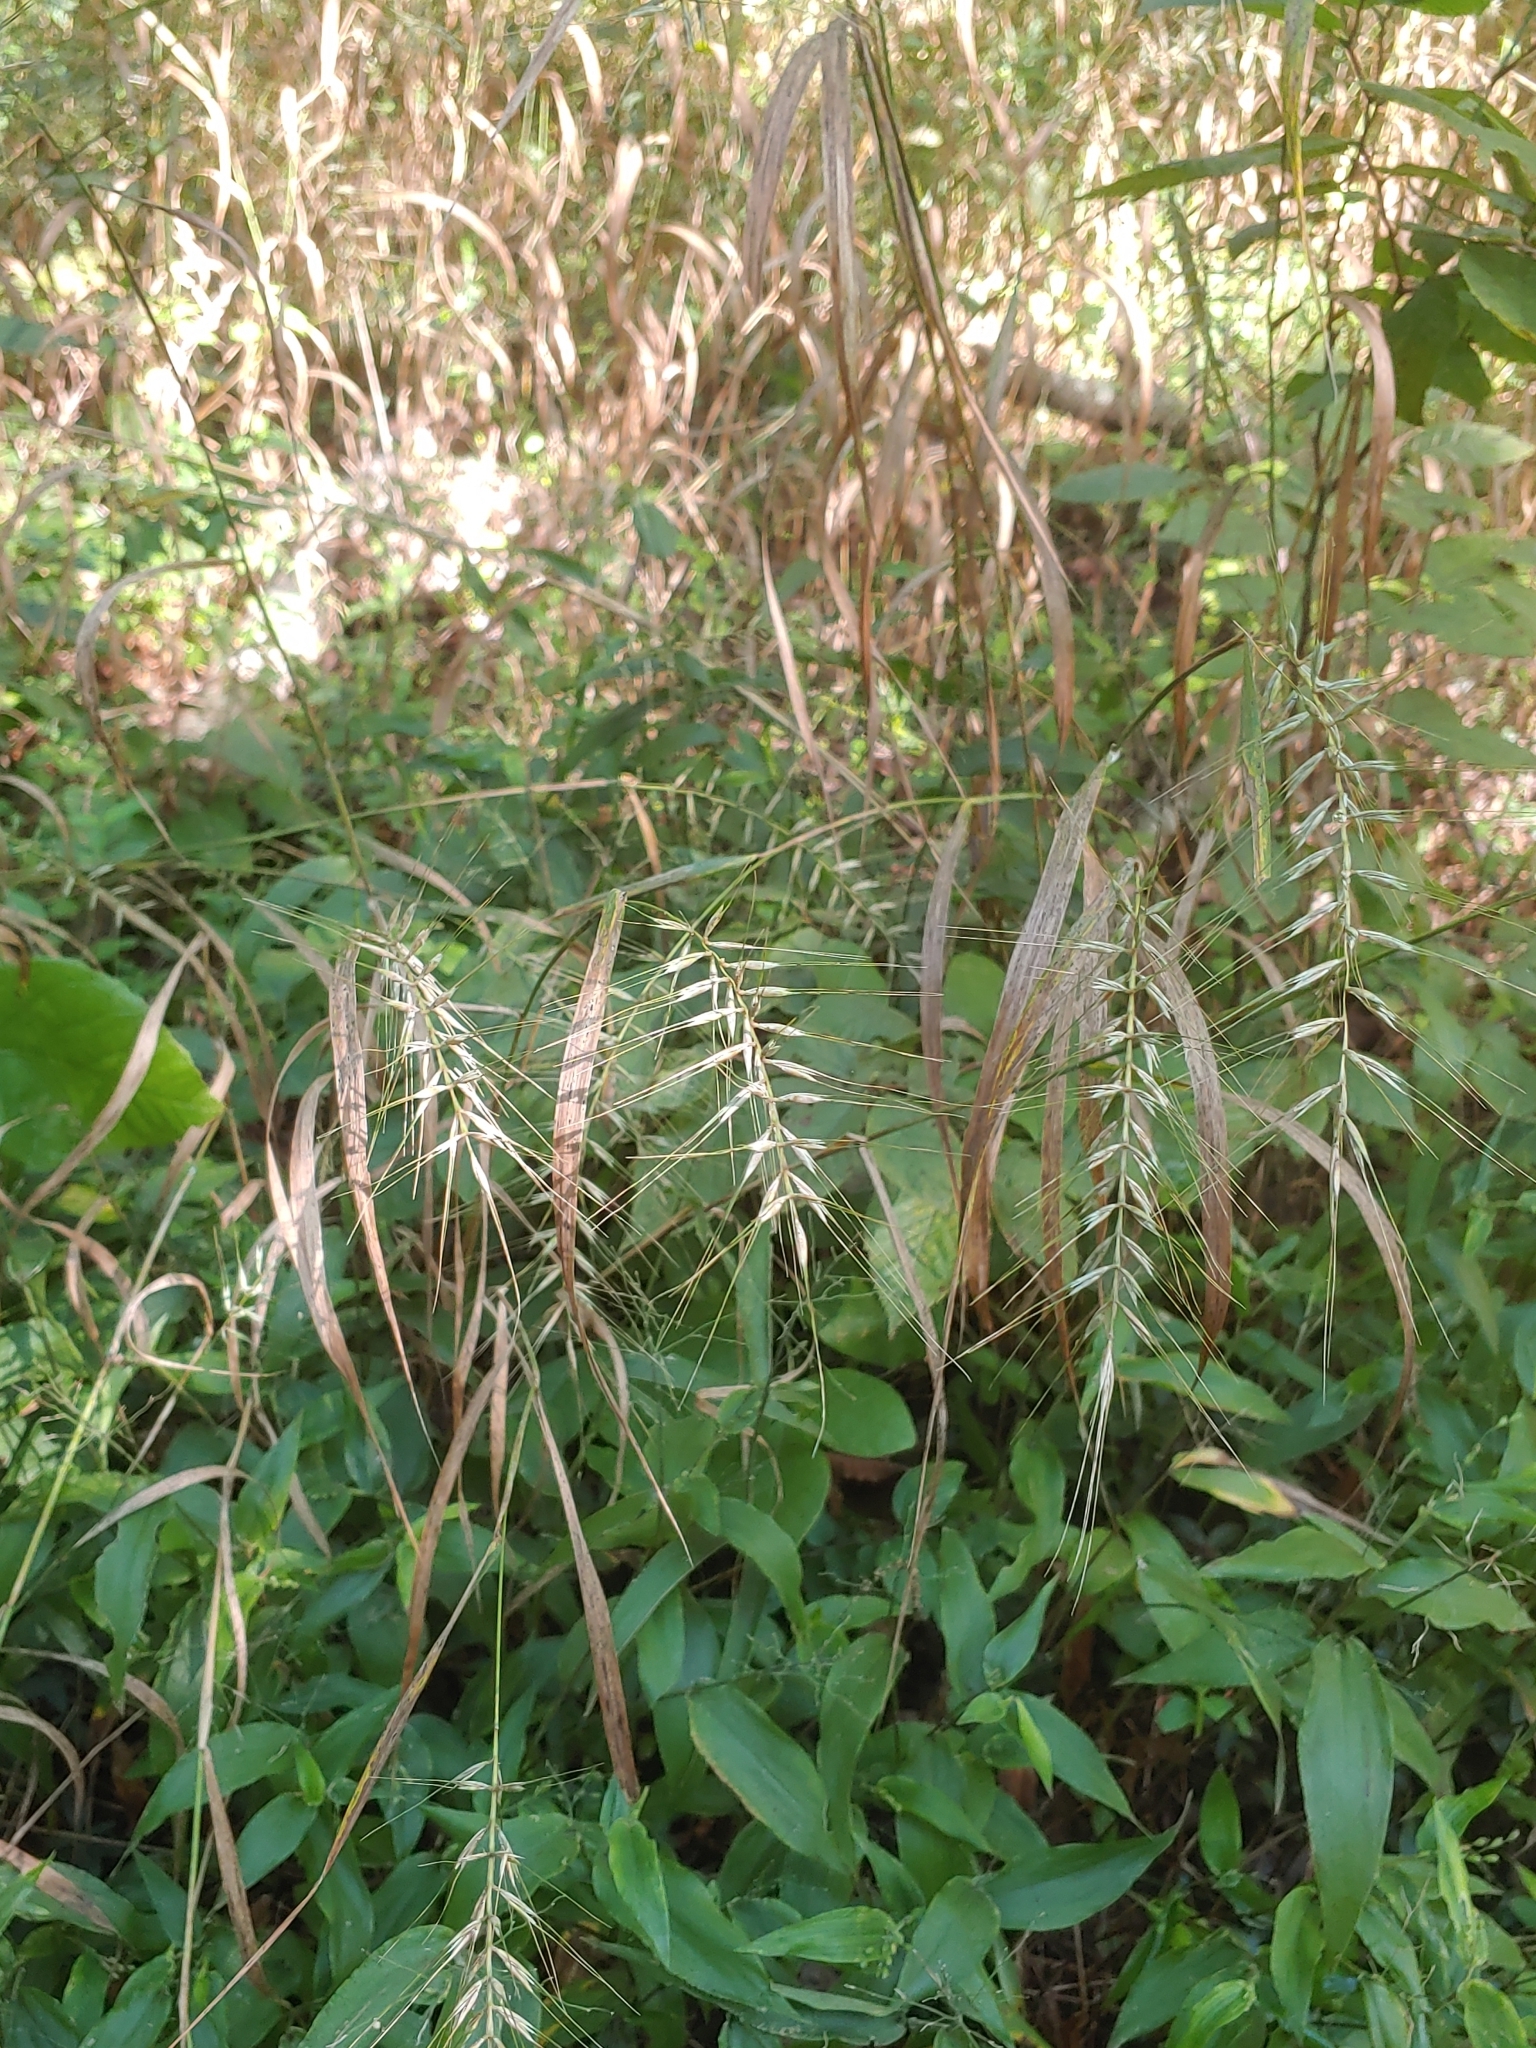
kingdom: Plantae
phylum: Tracheophyta
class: Liliopsida
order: Poales
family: Poaceae
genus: Elymus
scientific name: Elymus hystrix
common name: Bottlebrush grass
